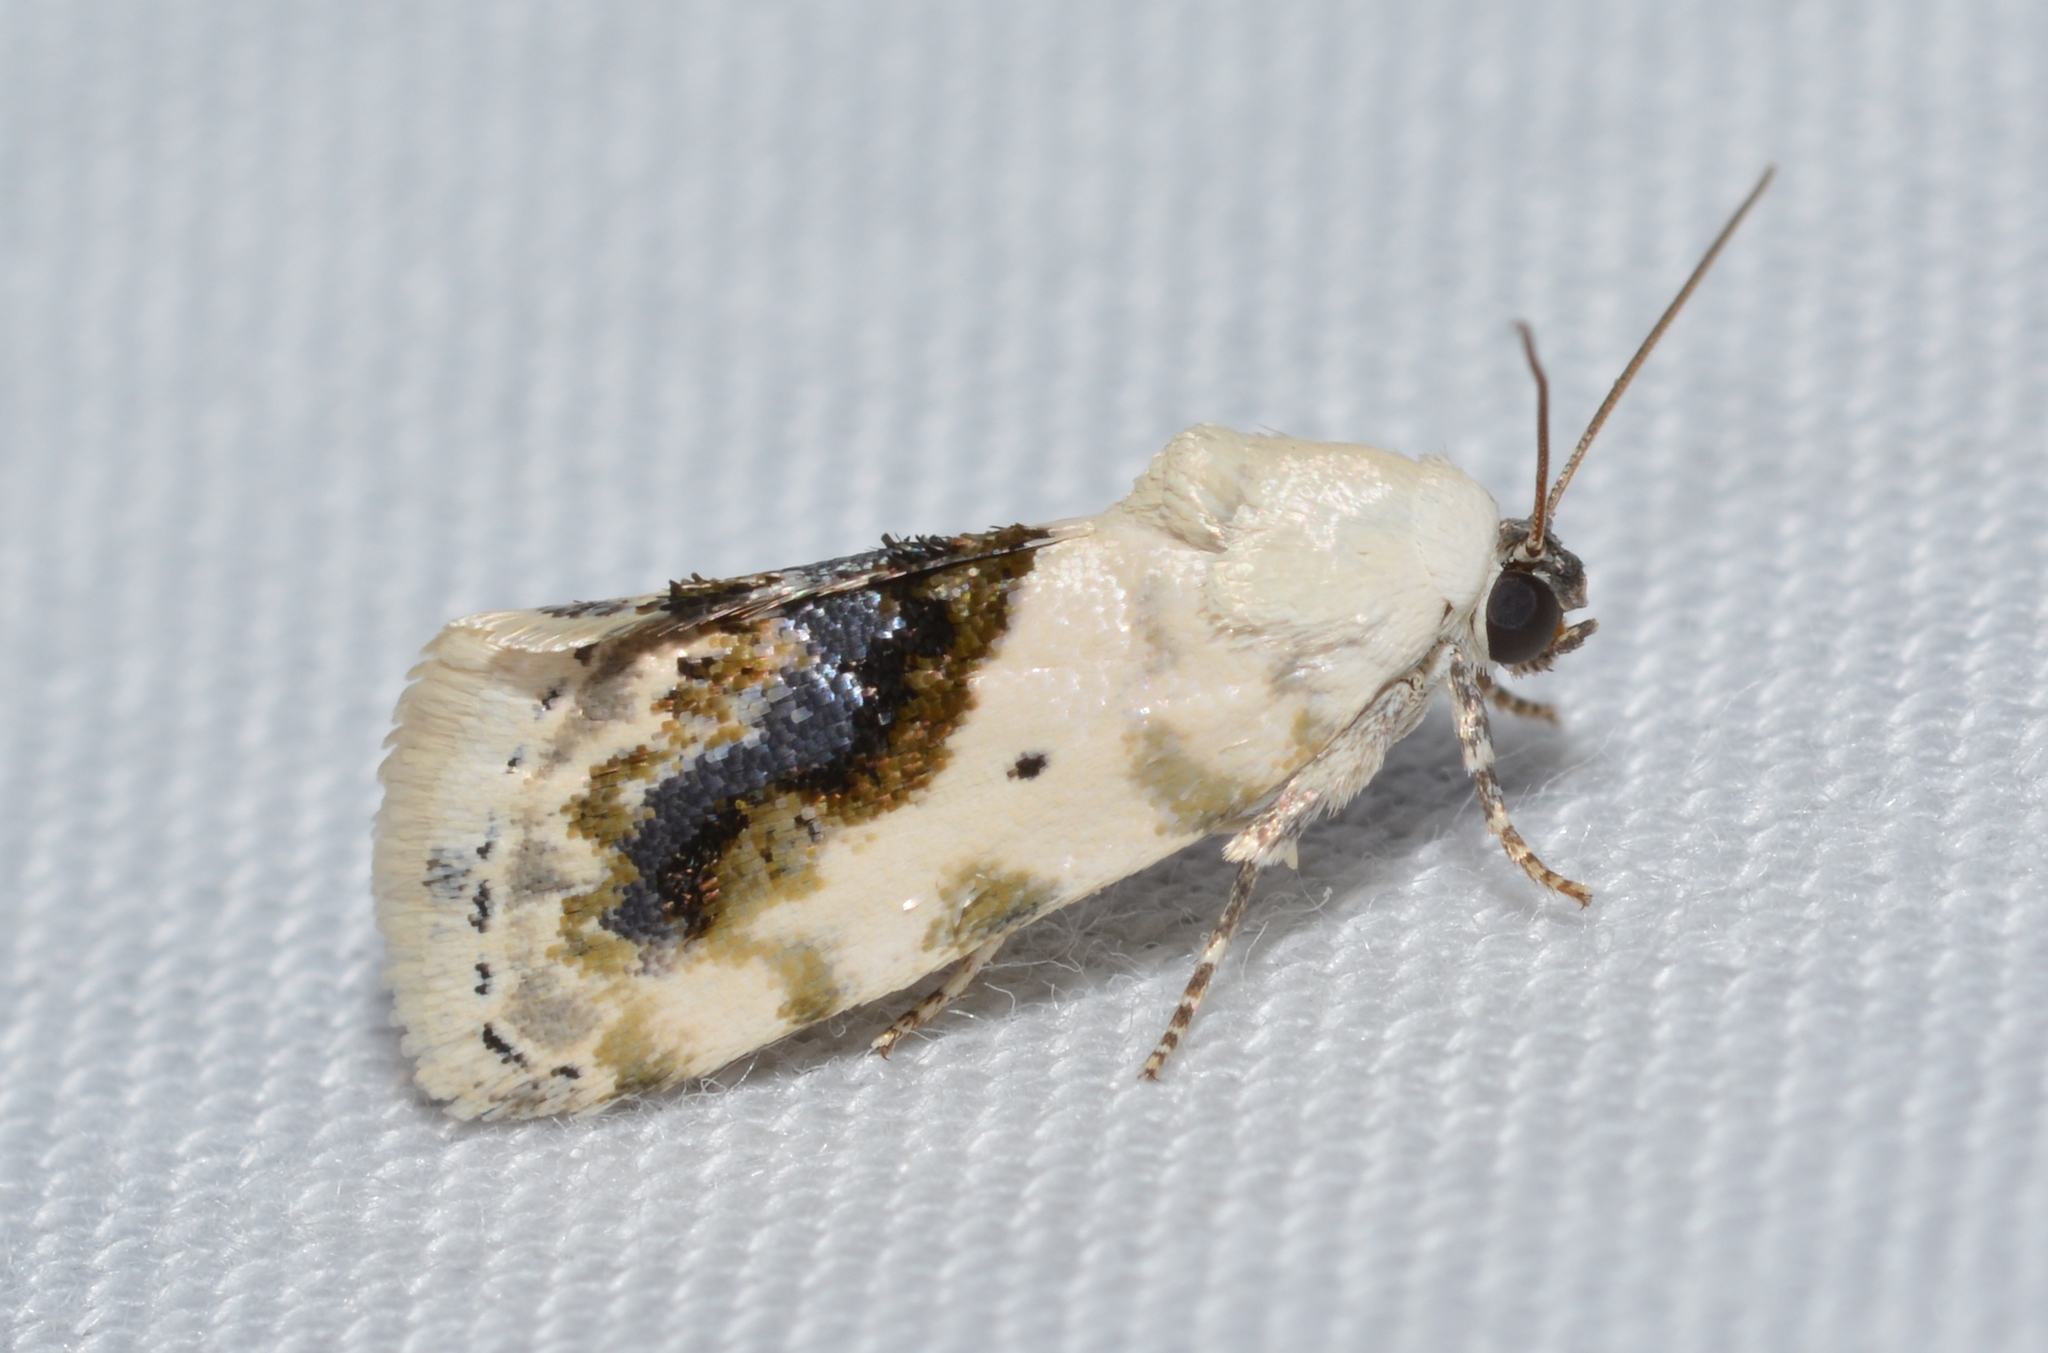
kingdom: Animalia
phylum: Arthropoda
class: Insecta
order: Lepidoptera
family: Noctuidae
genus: Acontia
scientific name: Acontia erastrioides
